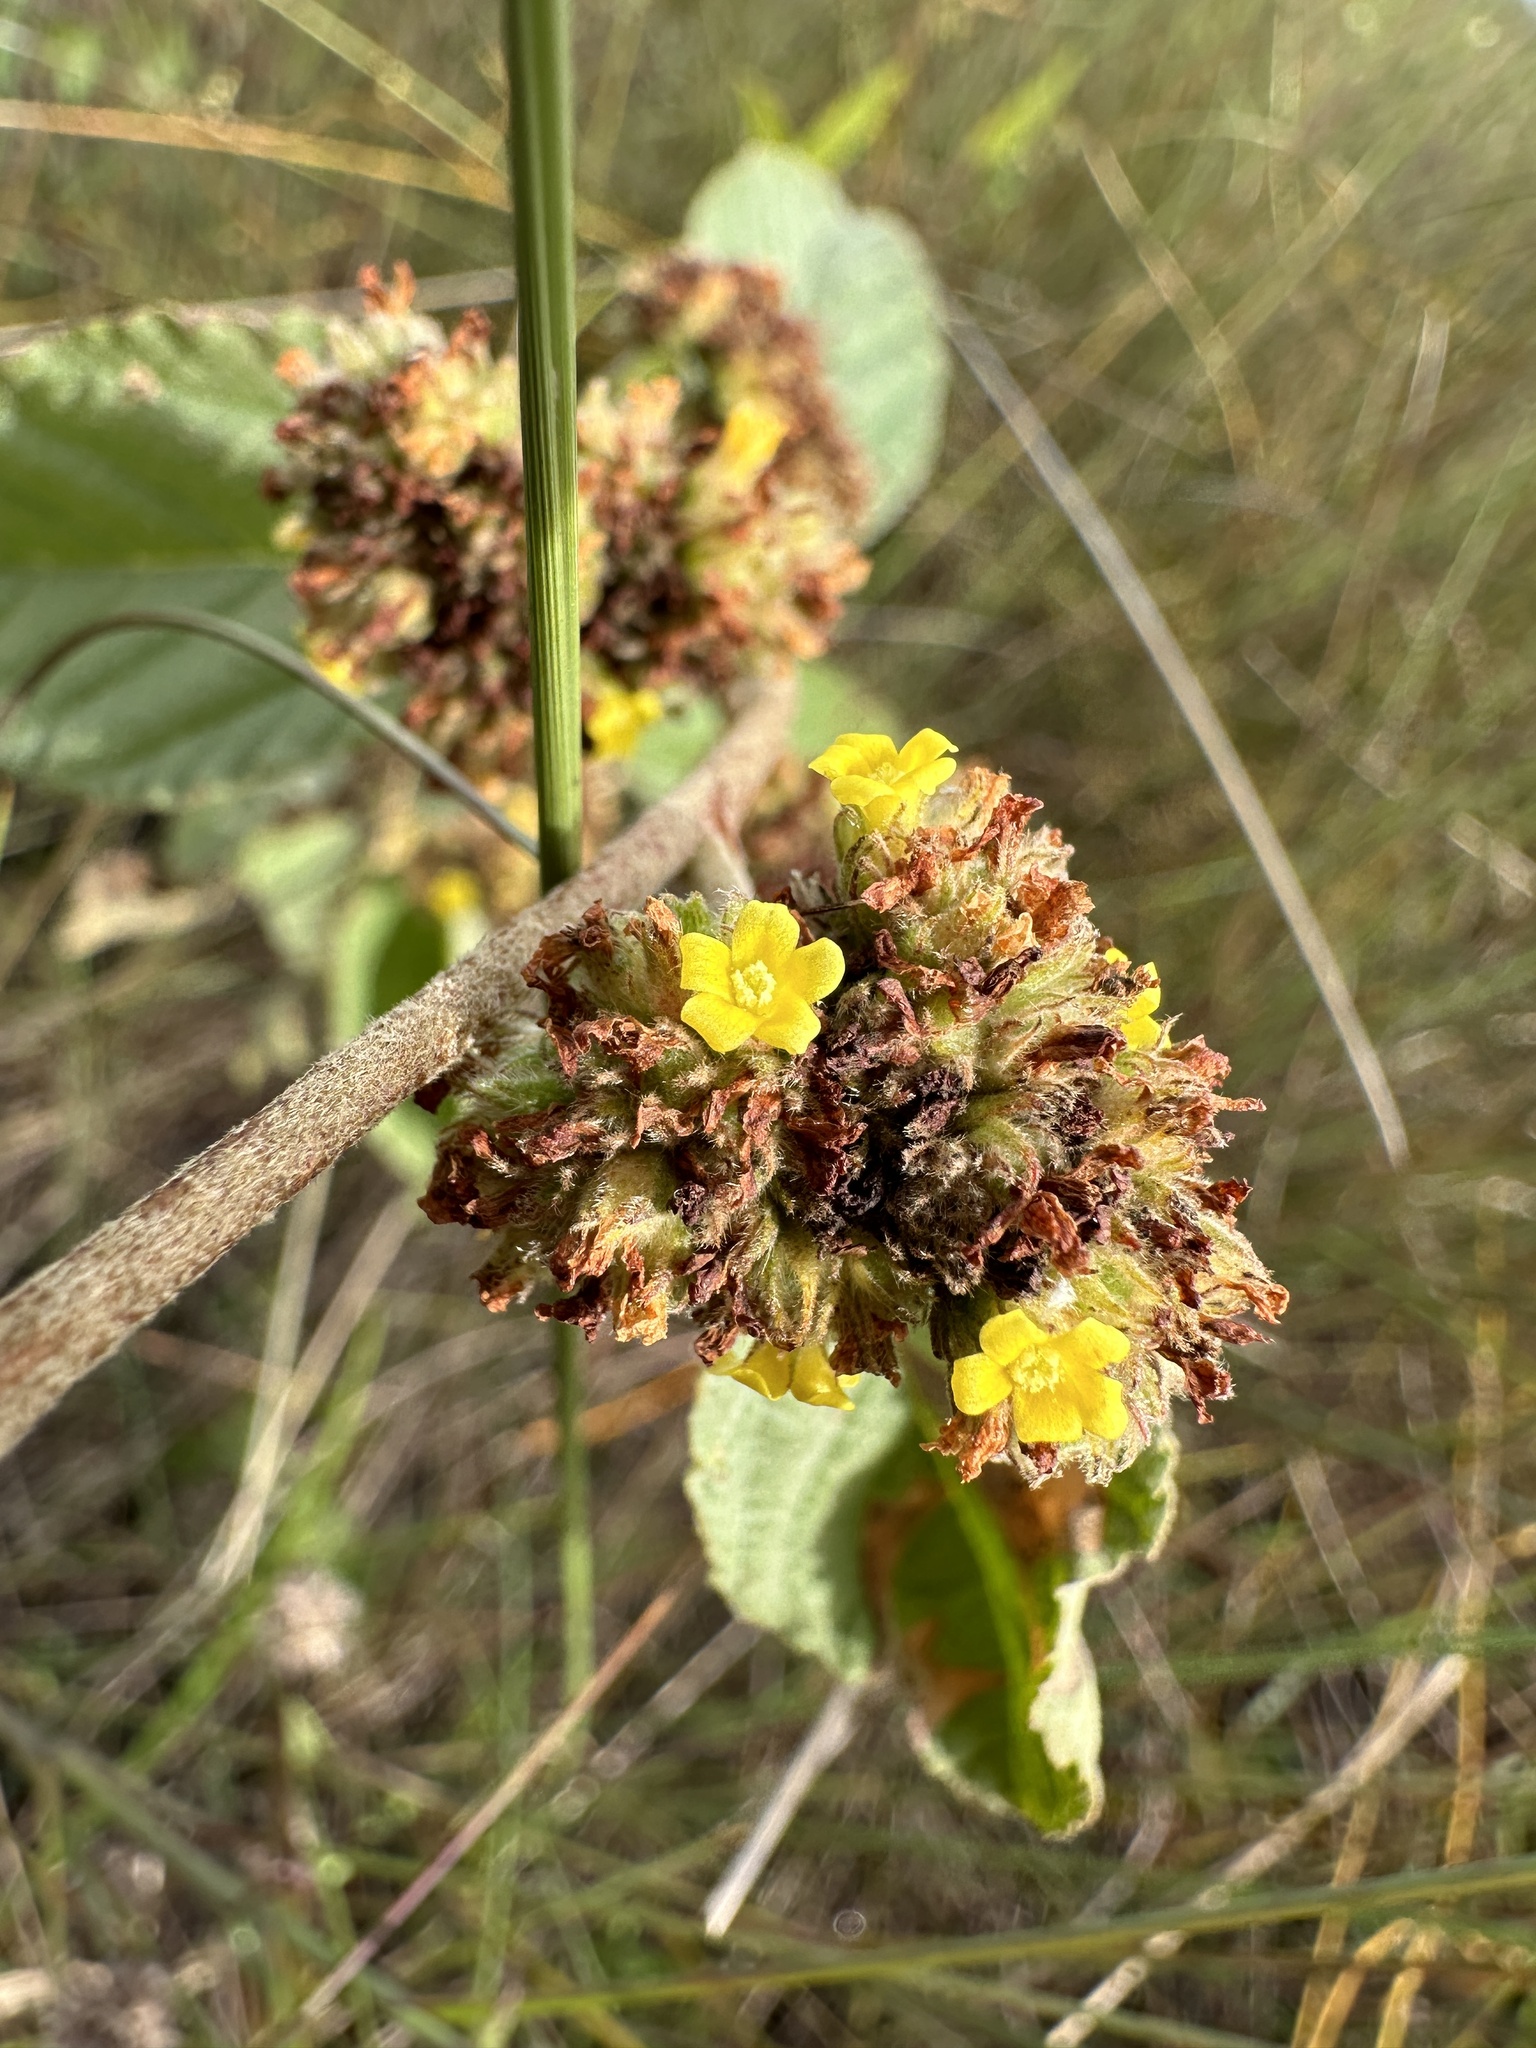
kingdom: Plantae
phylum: Tracheophyta
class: Magnoliopsida
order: Malvales
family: Malvaceae
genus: Waltheria
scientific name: Waltheria indica
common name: Leather-coat
